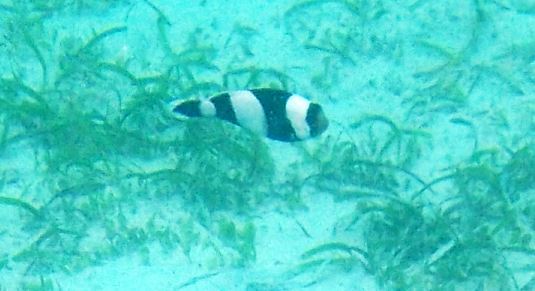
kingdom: Animalia
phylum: Chordata
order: Perciformes
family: Pomacentridae
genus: Amphiprion
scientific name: Amphiprion polymnus
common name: Saddleback anemonefish
